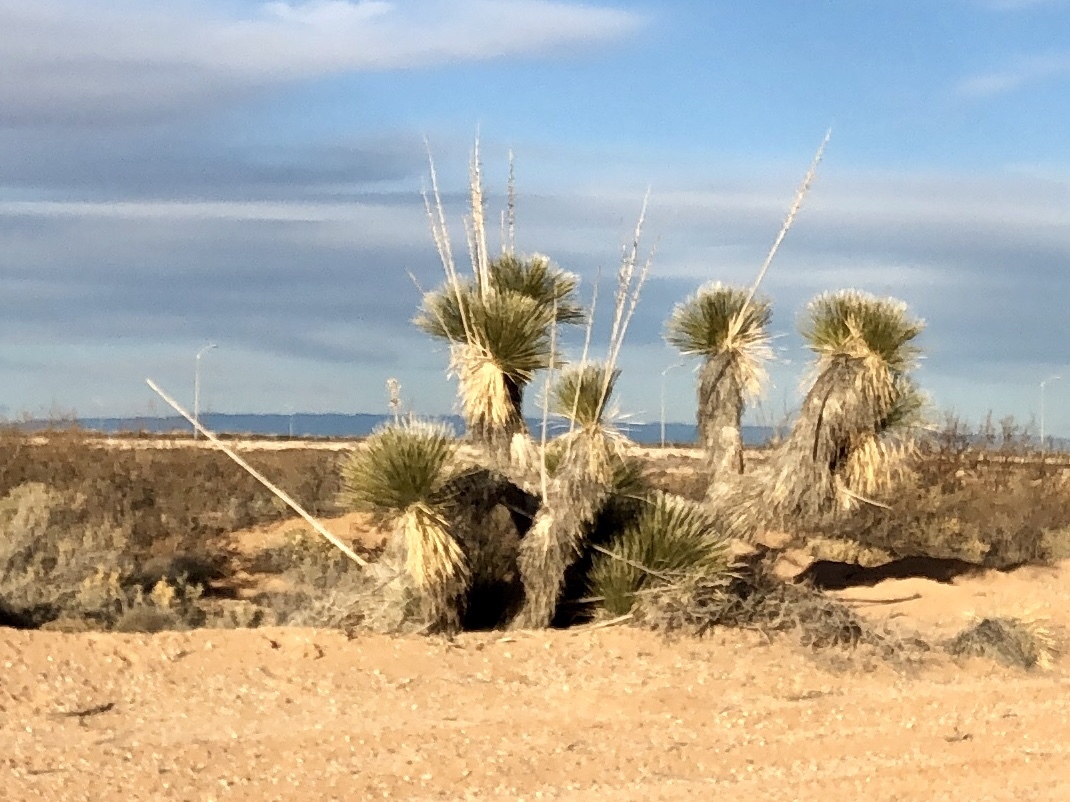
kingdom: Plantae
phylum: Tracheophyta
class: Liliopsida
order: Asparagales
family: Asparagaceae
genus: Yucca
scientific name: Yucca elata
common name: Palmella
